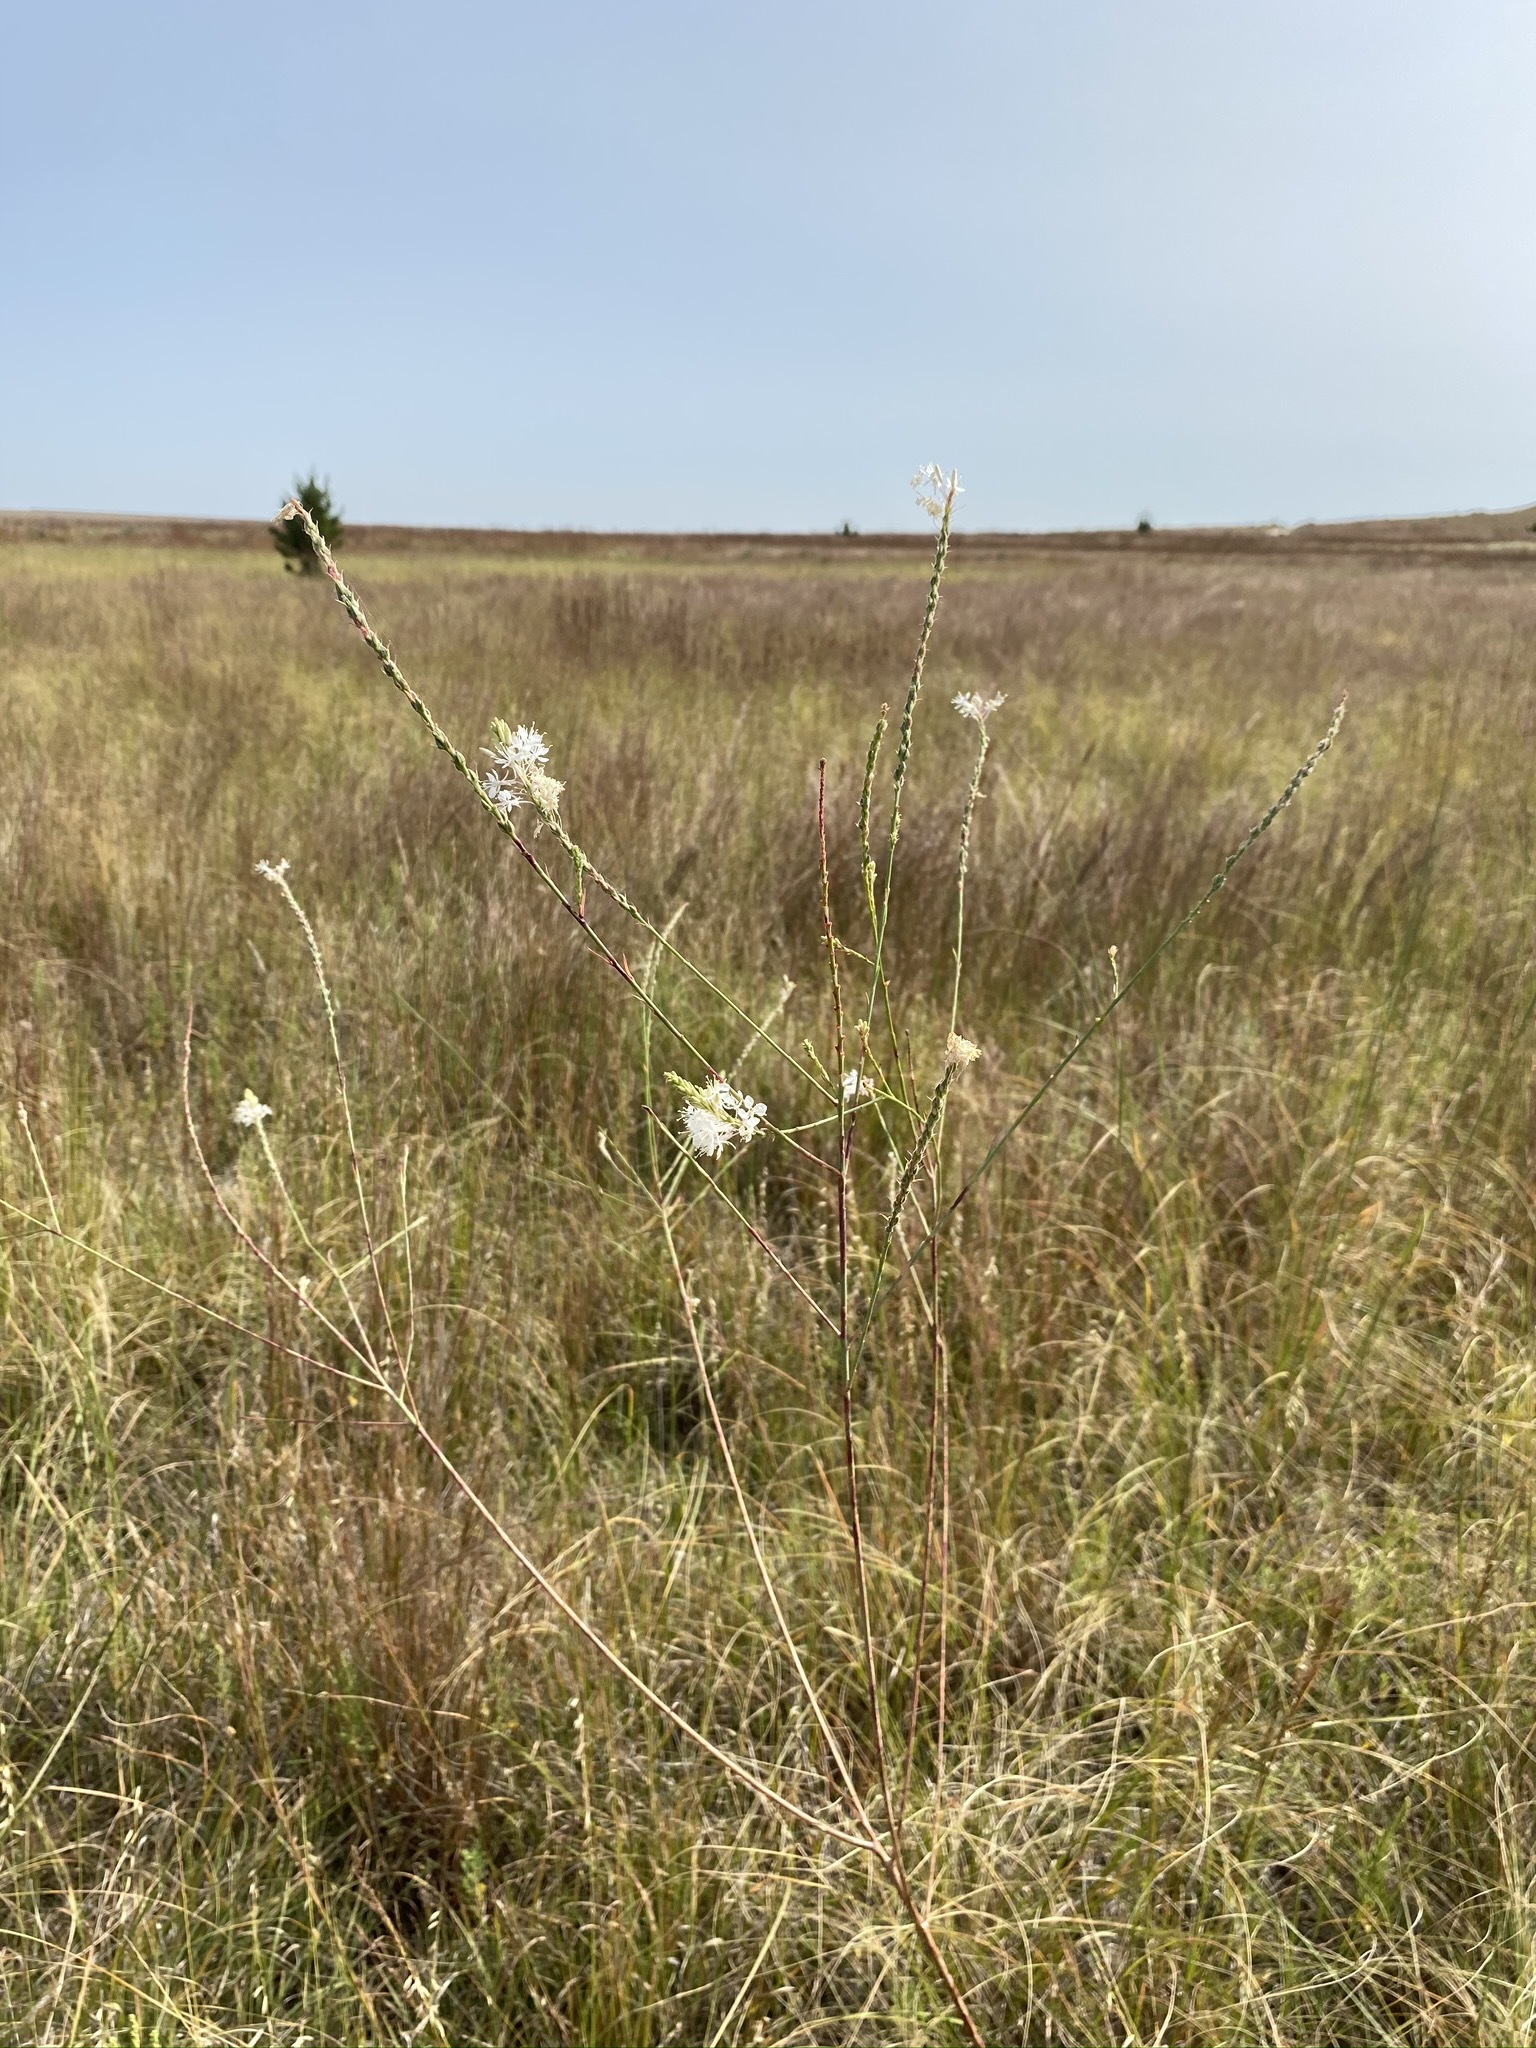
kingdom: Plantae
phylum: Tracheophyta
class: Magnoliopsida
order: Myrtales
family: Onagraceae
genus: Oenothera
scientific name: Oenothera glaucifolia
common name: False gaura
